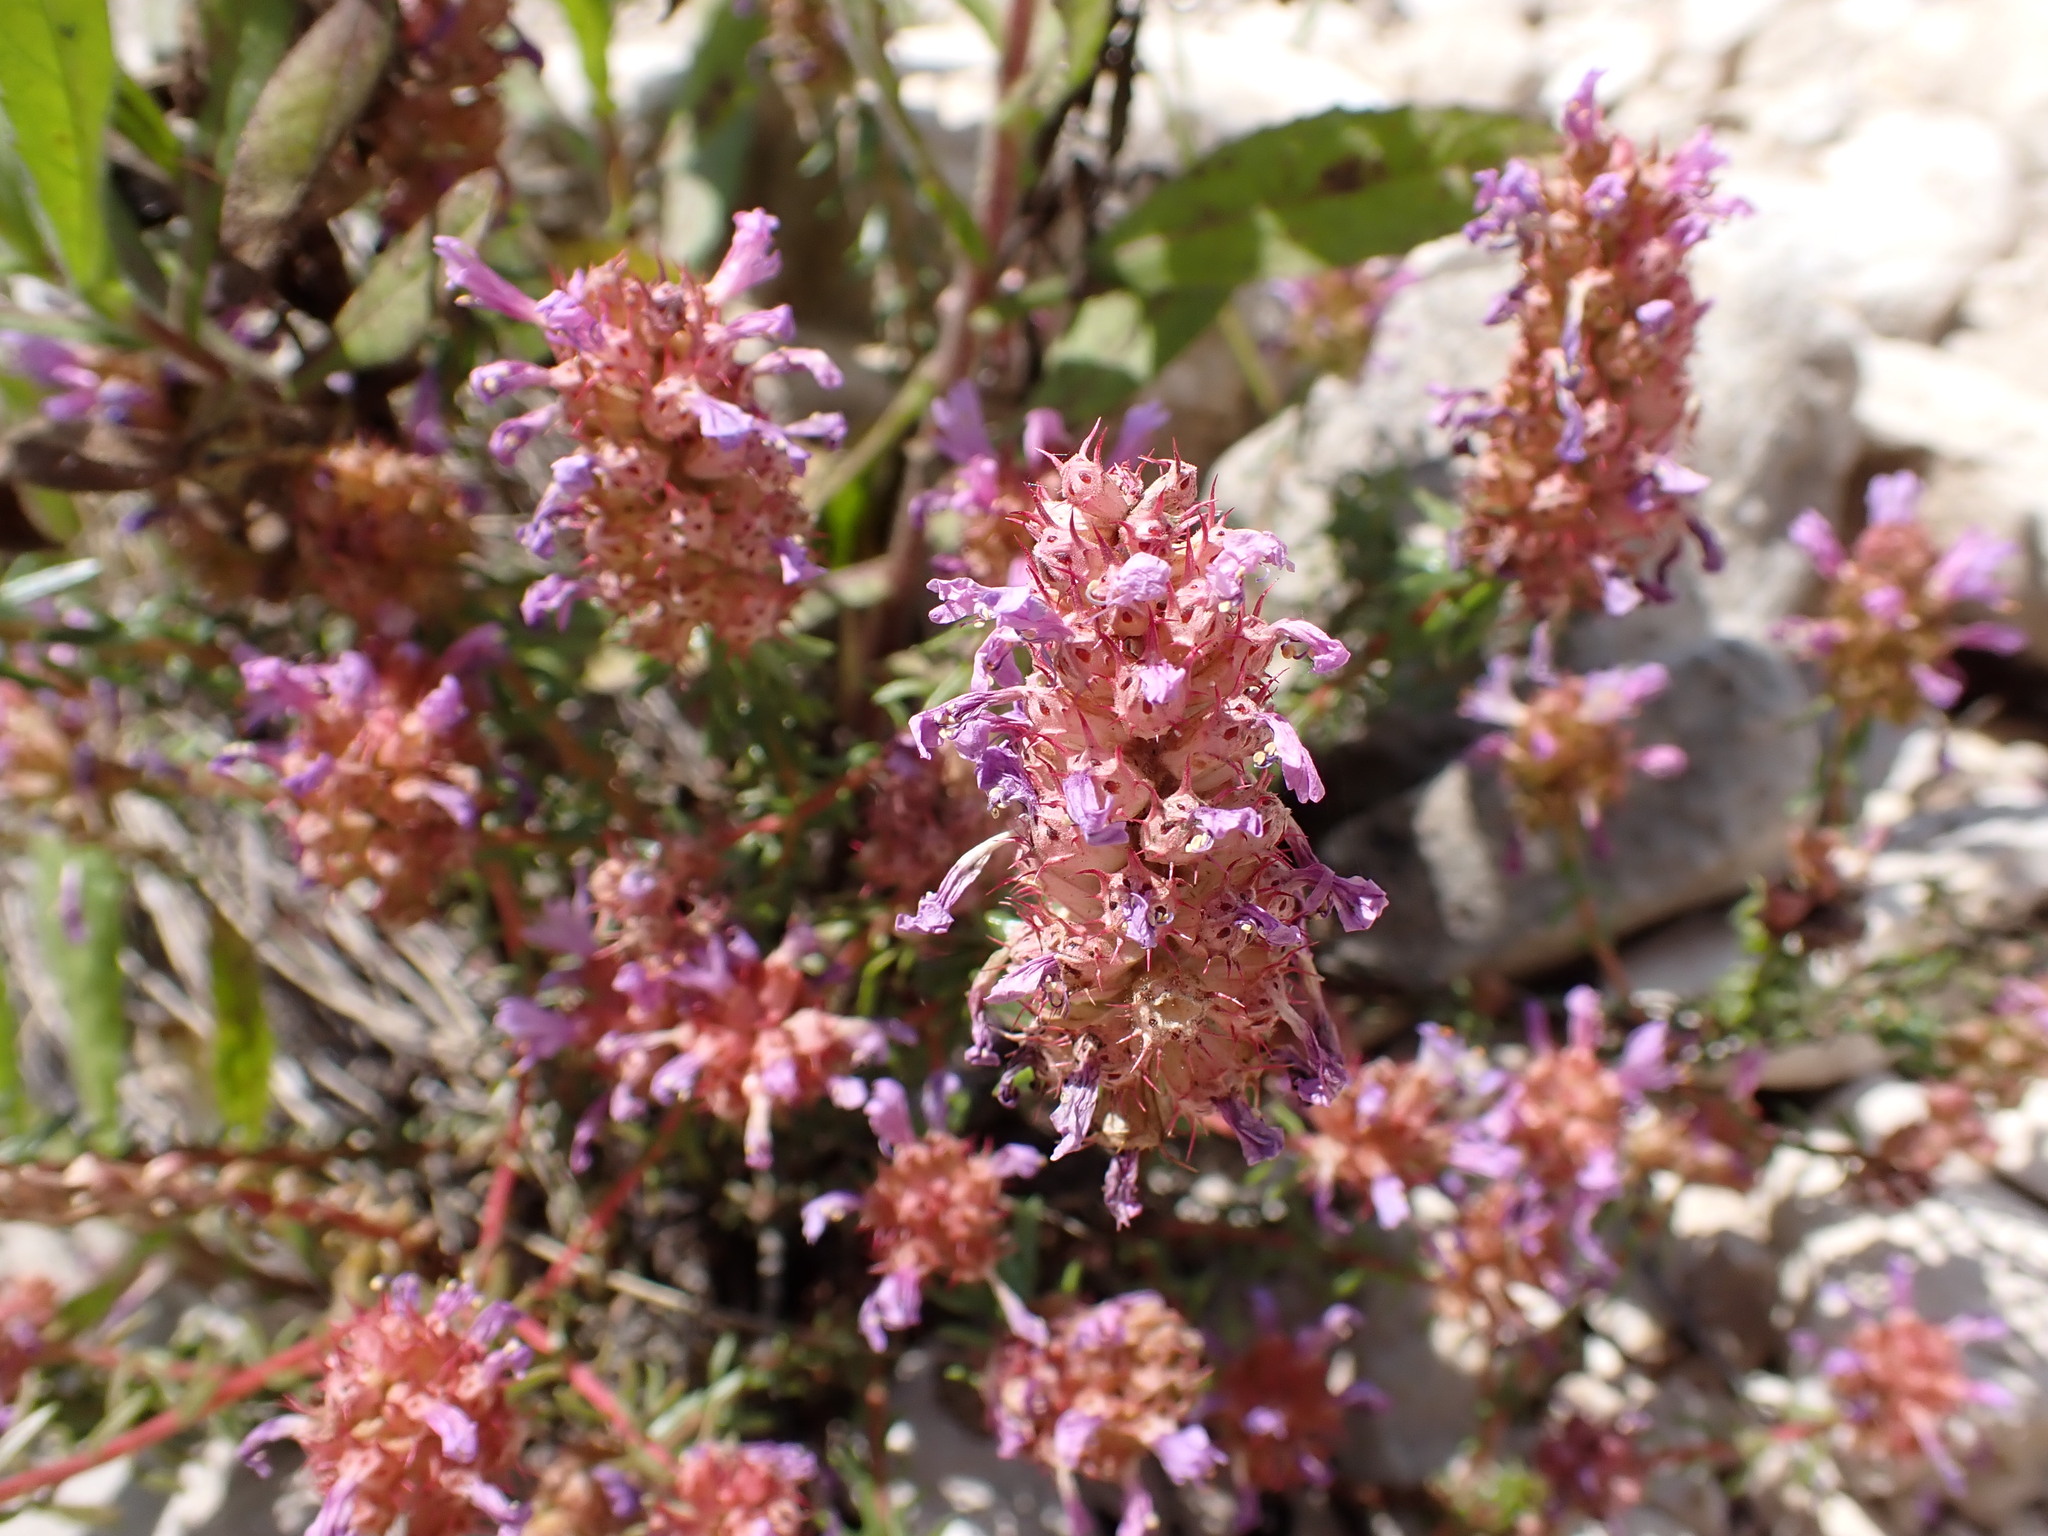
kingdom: Plantae
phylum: Tracheophyta
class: Magnoliopsida
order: Ericales
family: Primulaceae
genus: Coris
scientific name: Coris monspeliensis
